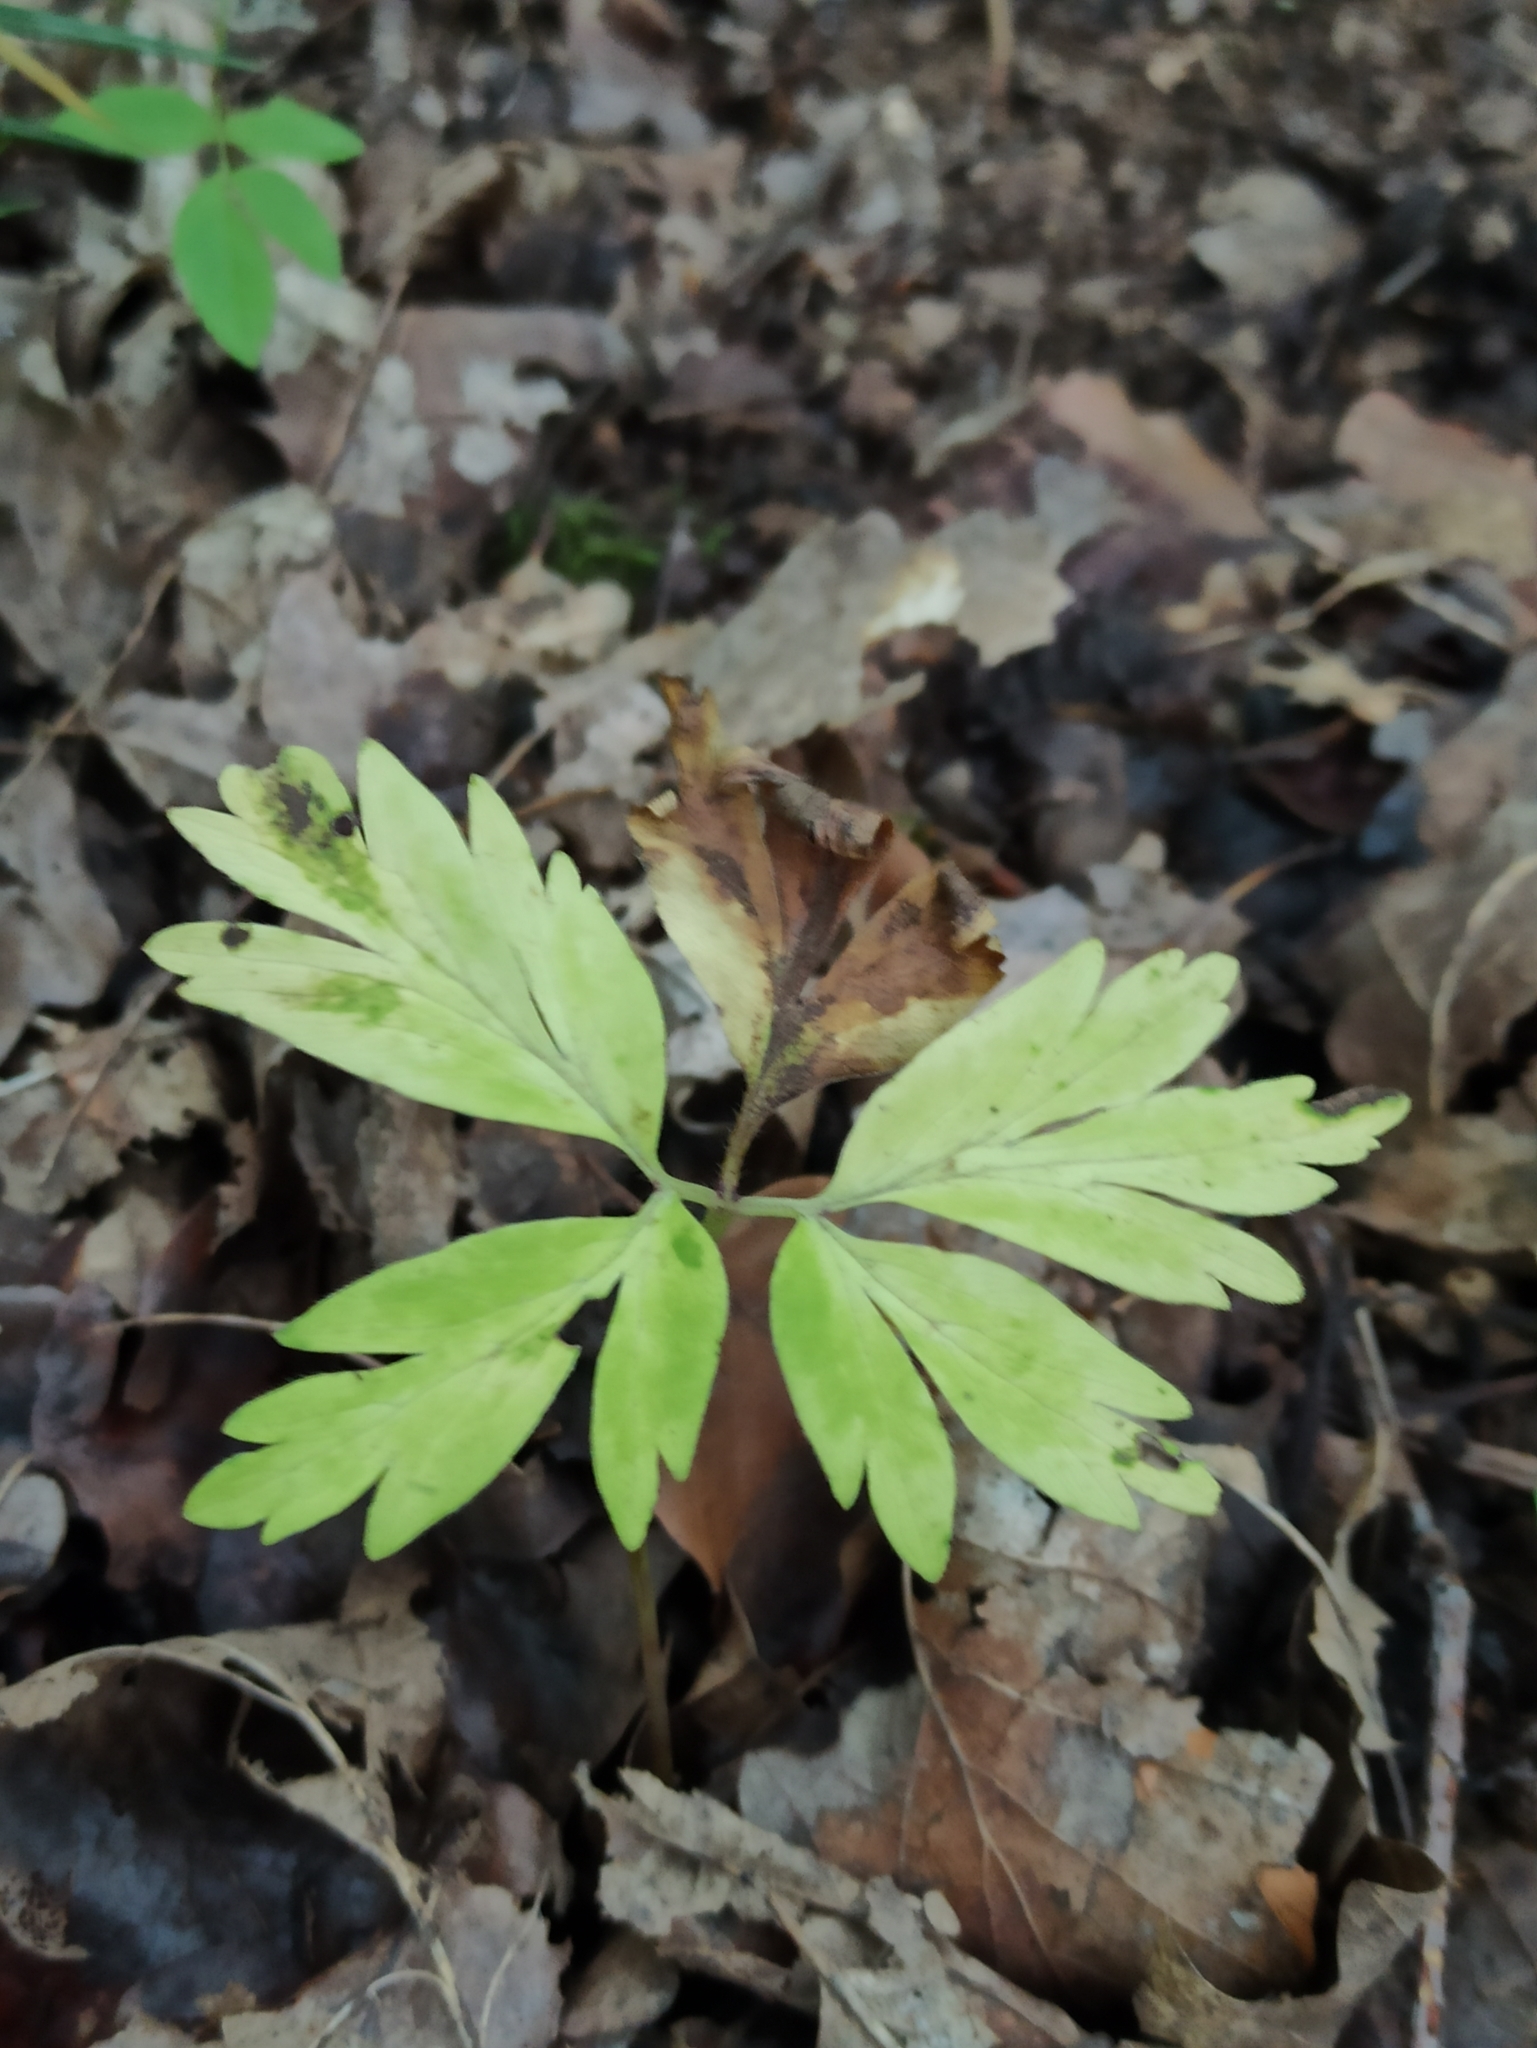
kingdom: Plantae
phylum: Tracheophyta
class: Magnoliopsida
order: Ranunculales
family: Ranunculaceae
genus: Anemone
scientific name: Anemone nemorosa
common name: Wood anemone
